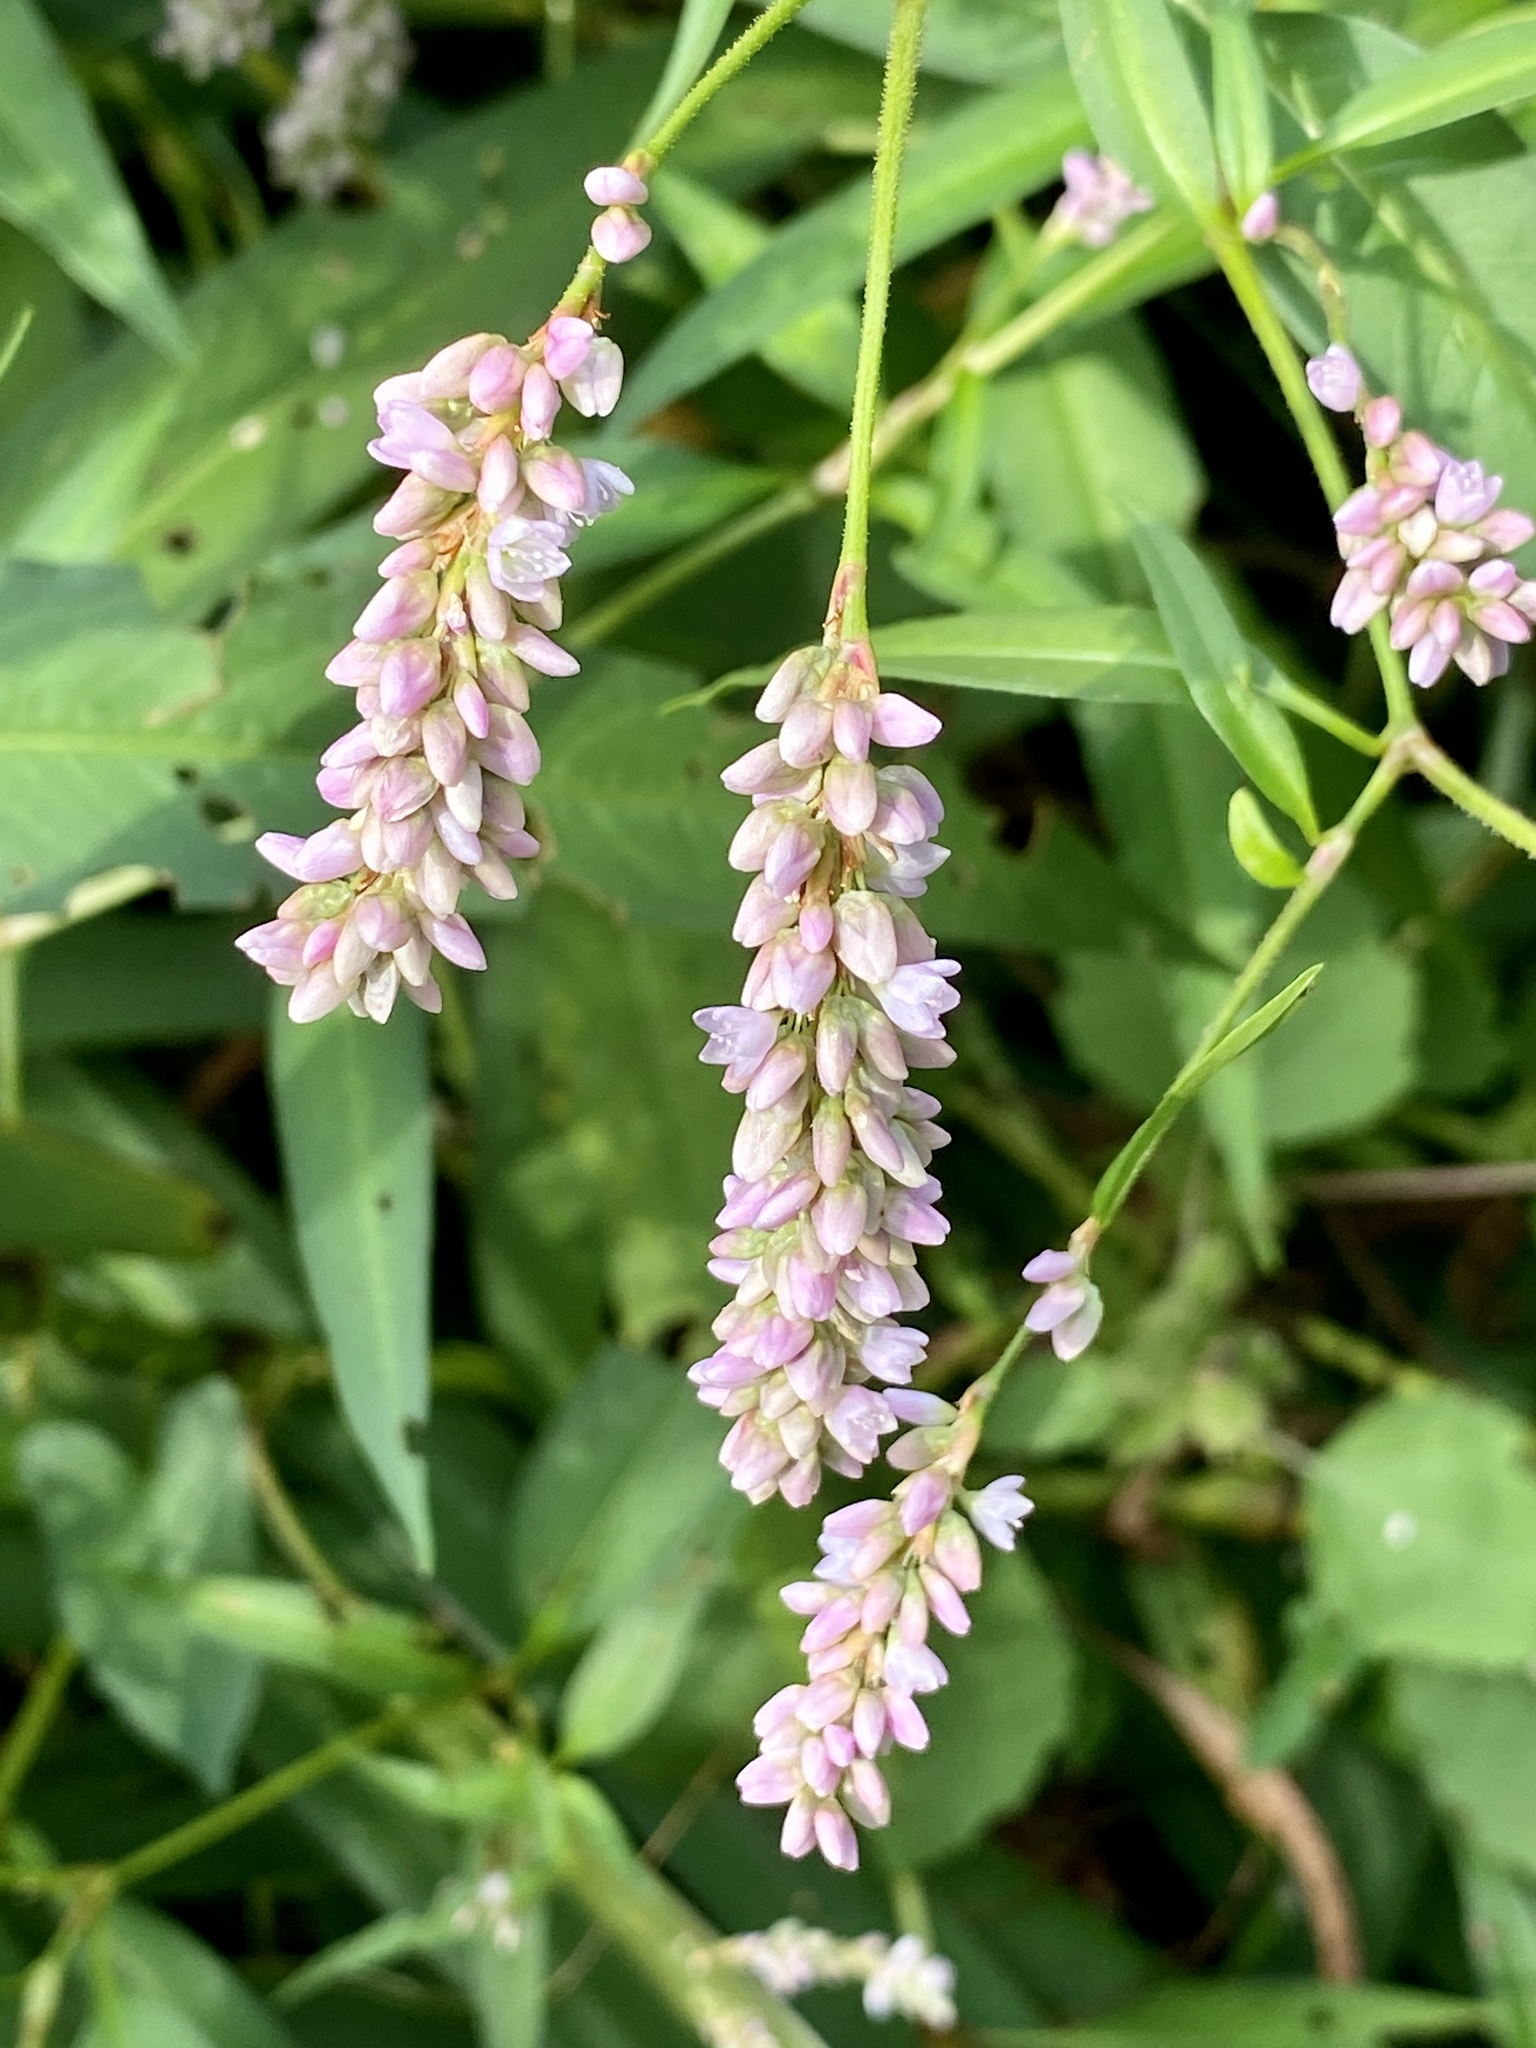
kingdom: Plantae
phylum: Tracheophyta
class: Magnoliopsida
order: Caryophyllales
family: Polygonaceae
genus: Persicaria
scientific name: Persicaria pensylvanica
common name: Pinkweed
